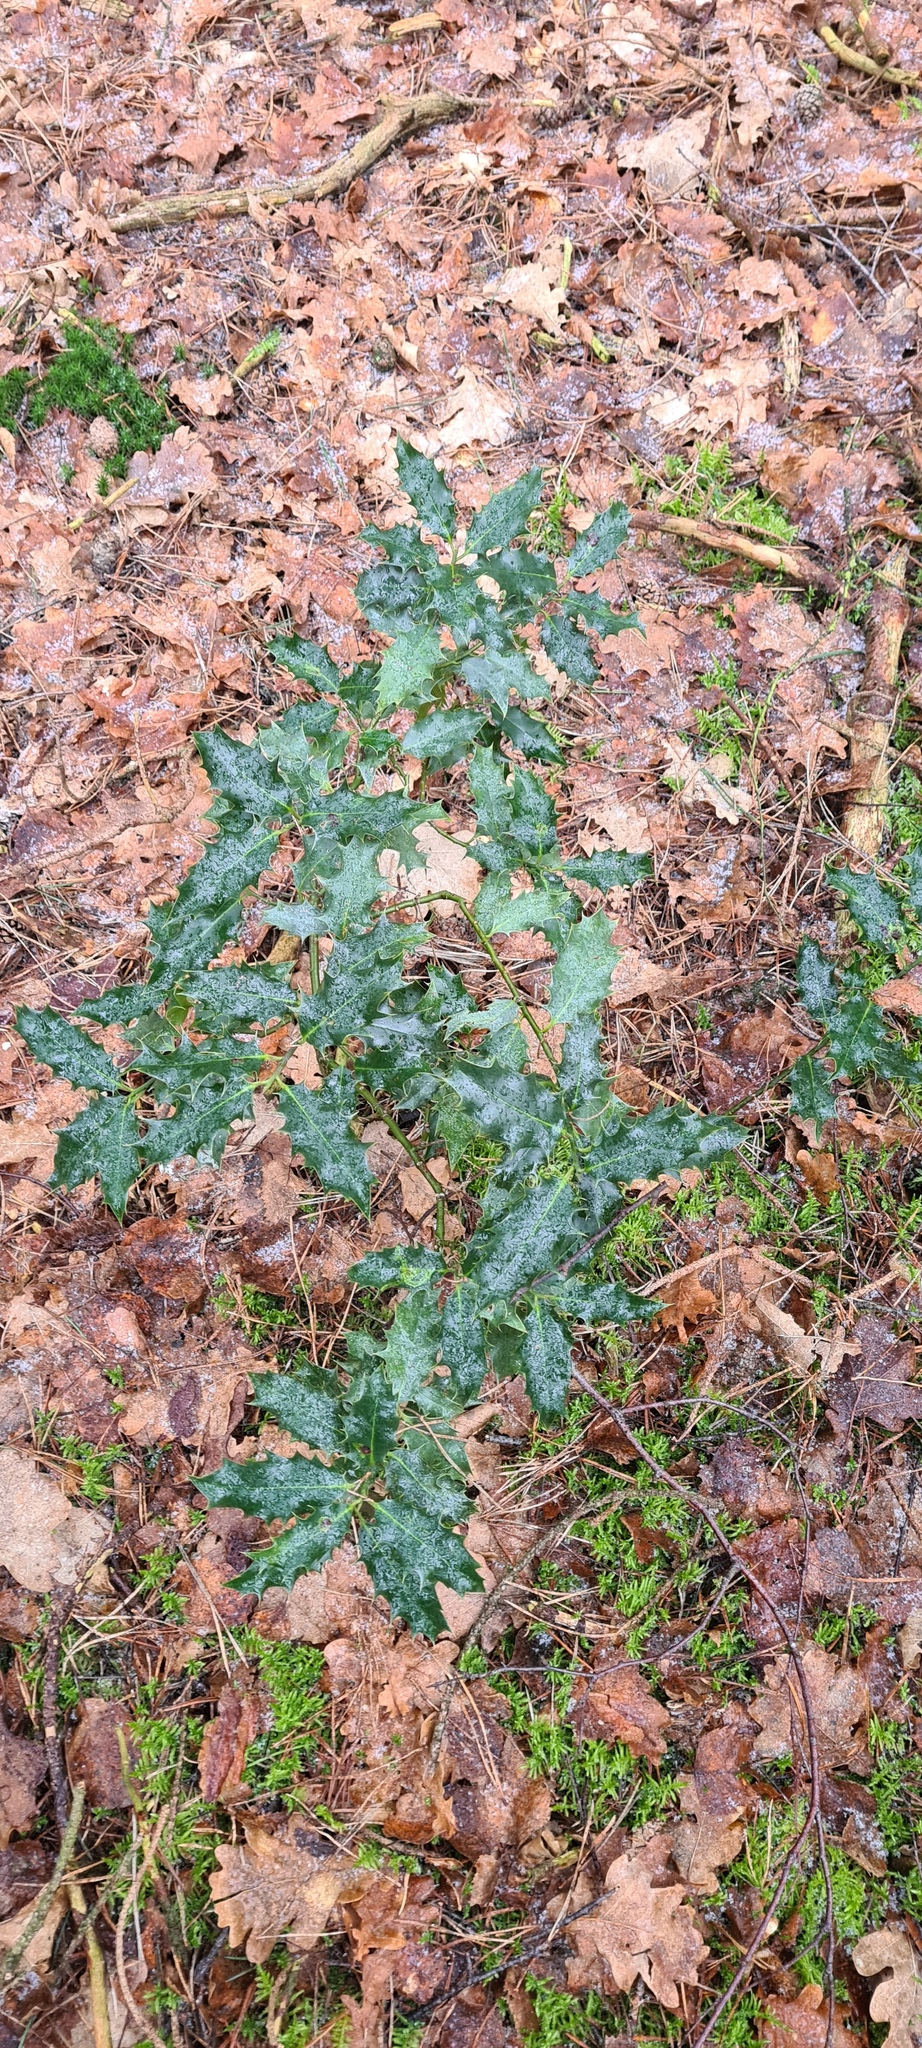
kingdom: Plantae
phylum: Tracheophyta
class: Magnoliopsida
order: Aquifoliales
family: Aquifoliaceae
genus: Ilex
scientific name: Ilex aquifolium
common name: English holly
